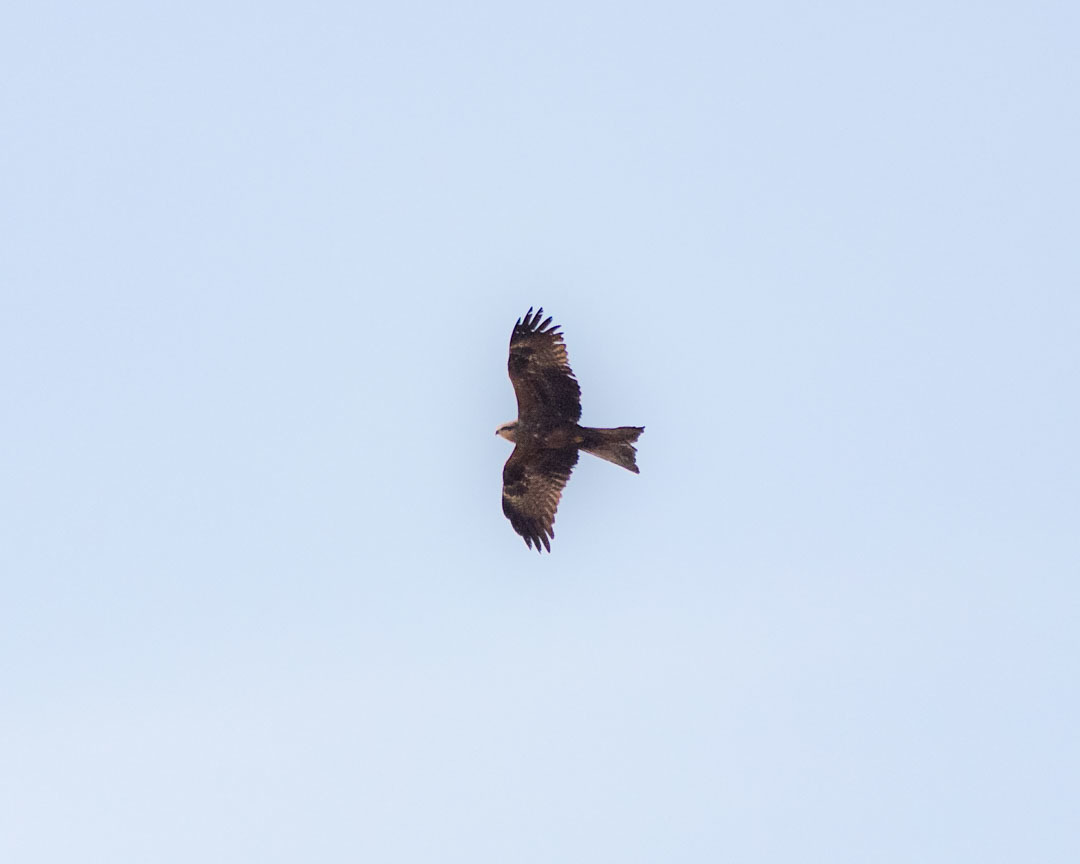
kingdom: Animalia
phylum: Chordata
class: Aves
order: Accipitriformes
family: Accipitridae
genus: Milvus
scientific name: Milvus migrans
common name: Black kite
